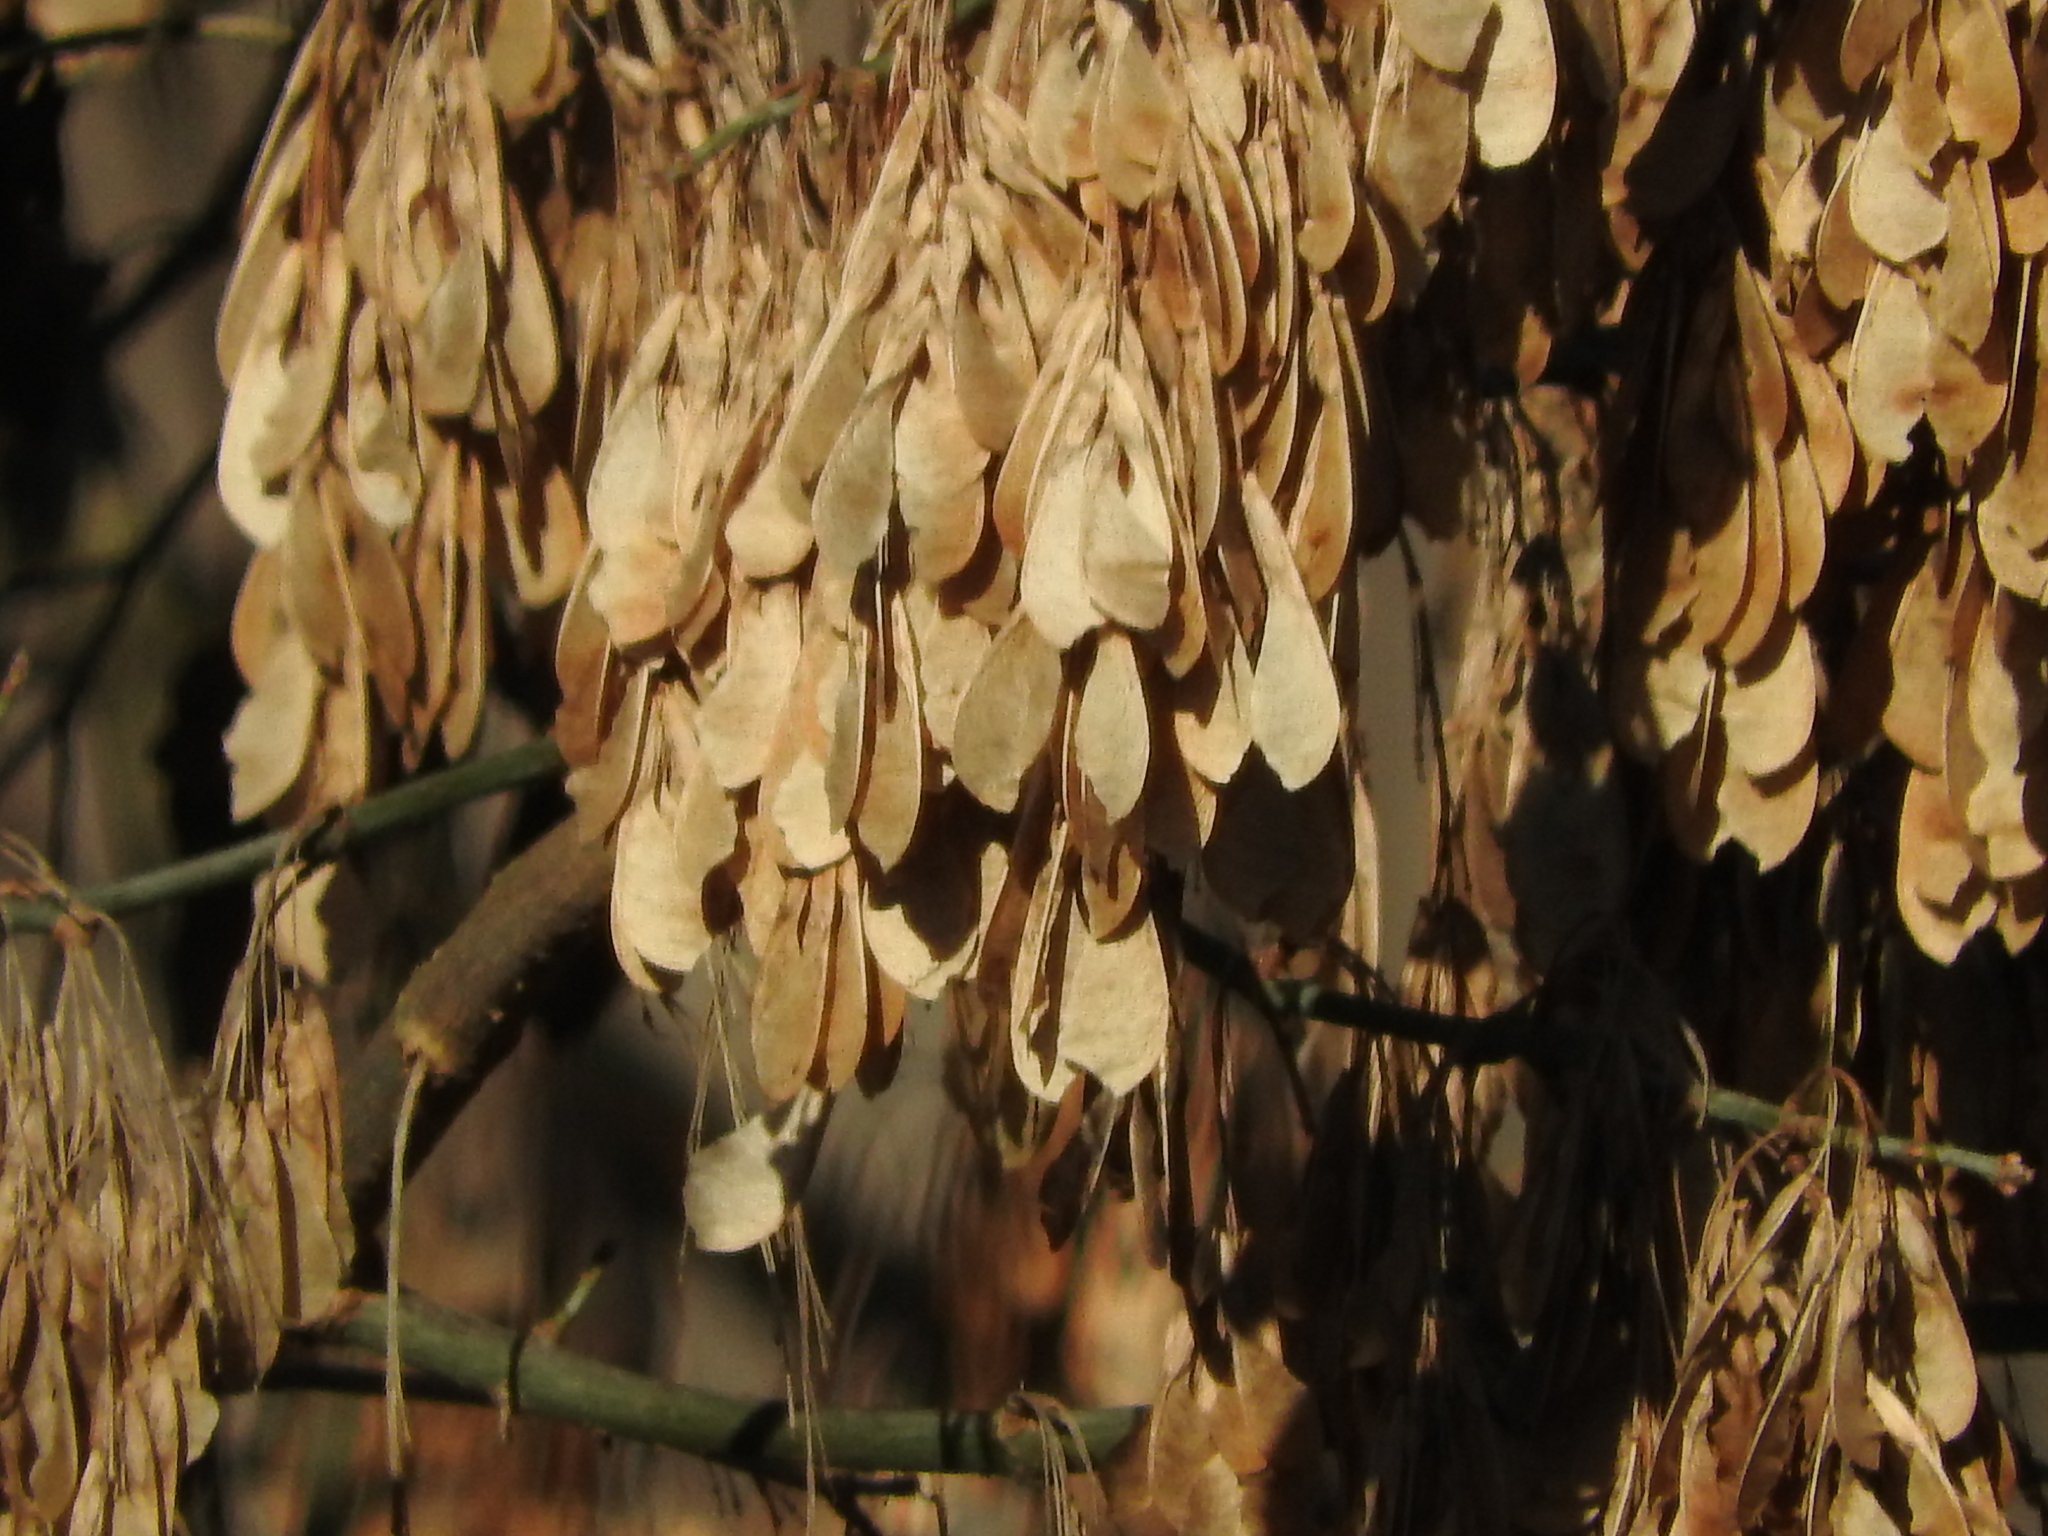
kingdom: Plantae
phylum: Tracheophyta
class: Magnoliopsida
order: Sapindales
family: Sapindaceae
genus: Acer
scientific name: Acer negundo
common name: Ashleaf maple
